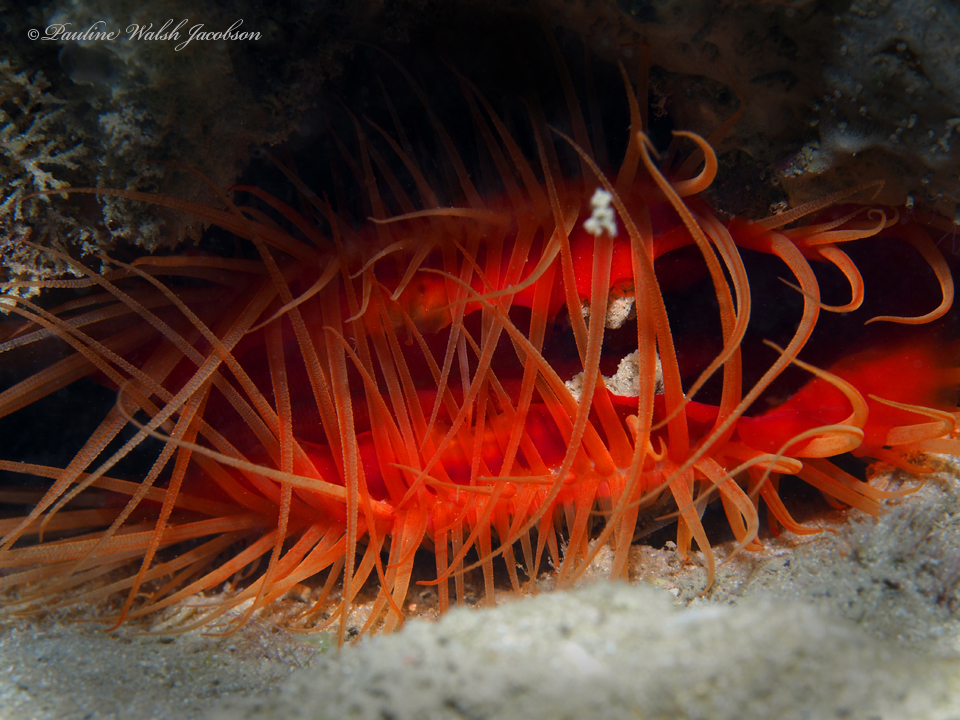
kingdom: Animalia
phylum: Mollusca
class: Bivalvia
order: Limida
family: Limidae
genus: Ctenoides
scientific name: Ctenoides scaber
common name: Rough fileclam
